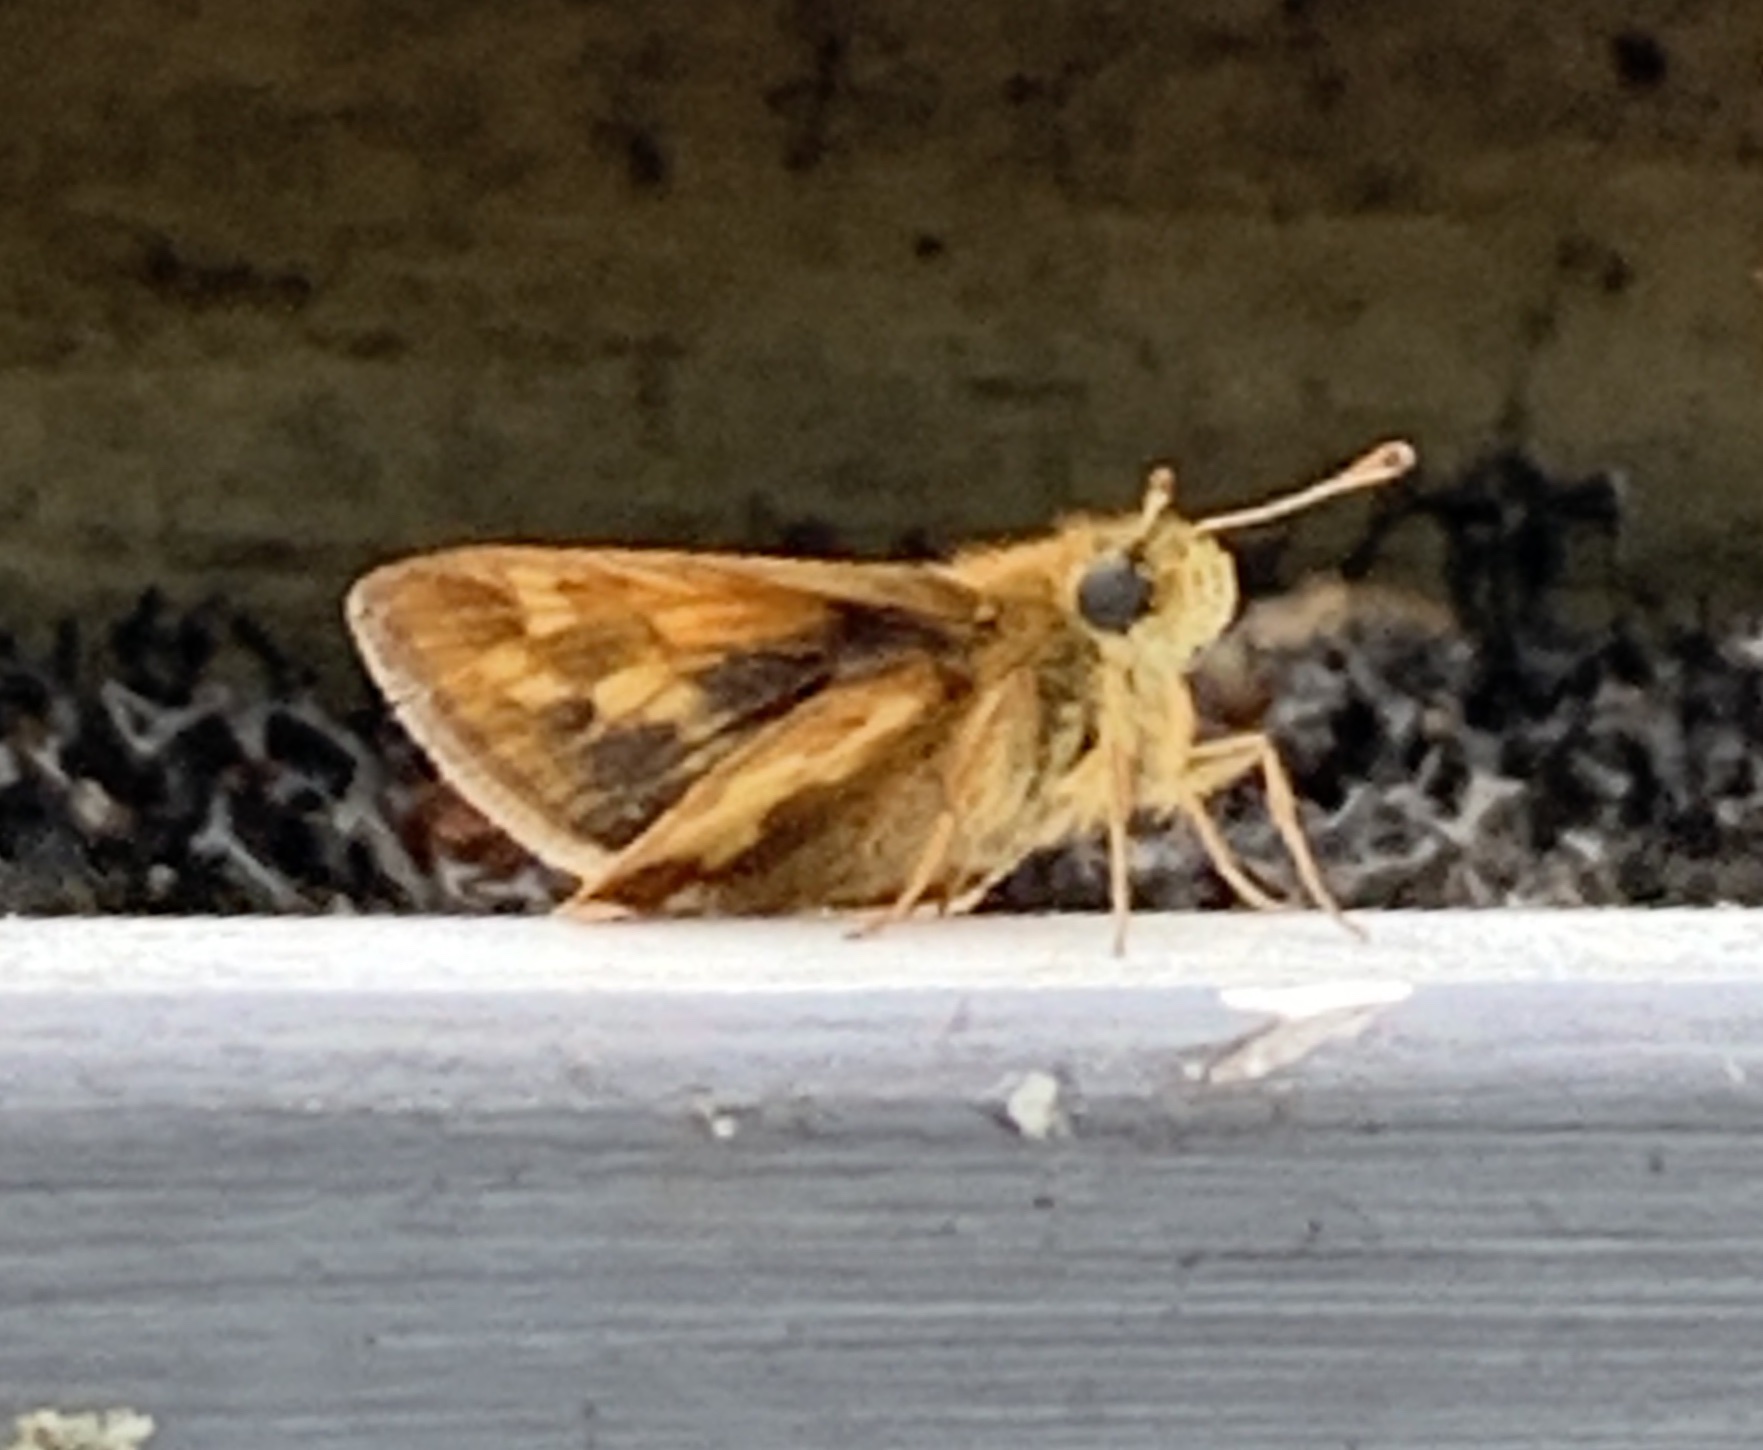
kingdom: Animalia
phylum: Arthropoda
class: Insecta
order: Lepidoptera
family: Hesperiidae
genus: Polites
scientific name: Polites coras
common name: Peck's skipper
